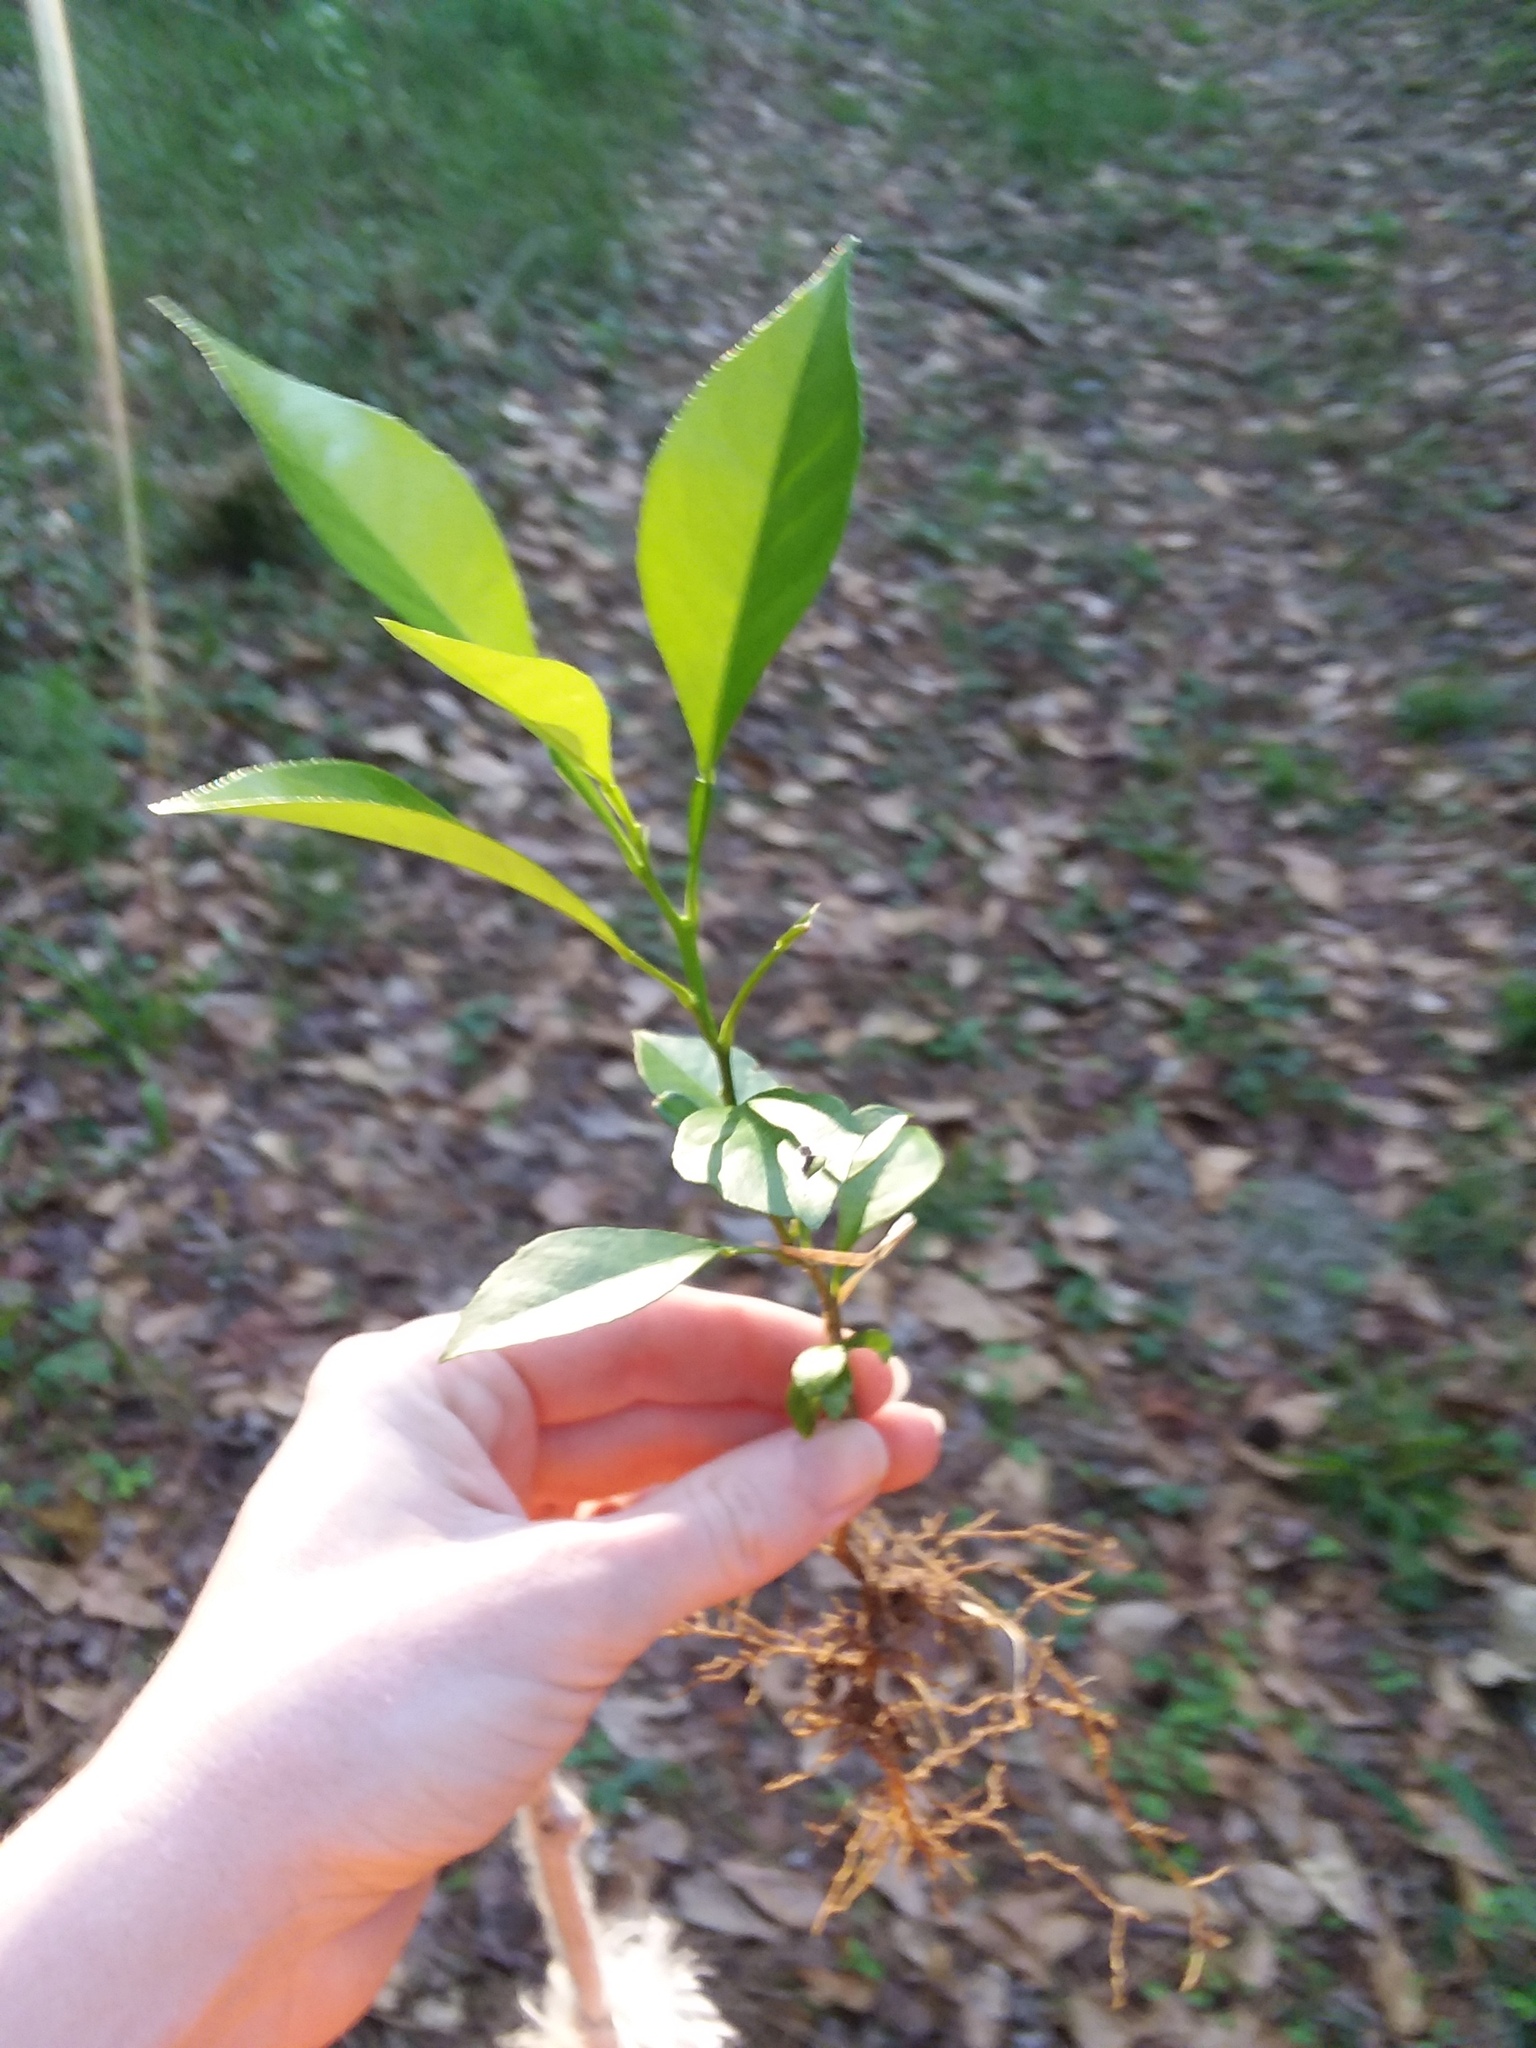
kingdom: Plantae
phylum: Tracheophyta
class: Magnoliopsida
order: Sapindales
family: Rutaceae
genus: Citrus
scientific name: Citrus aurantium
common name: Sour orange
